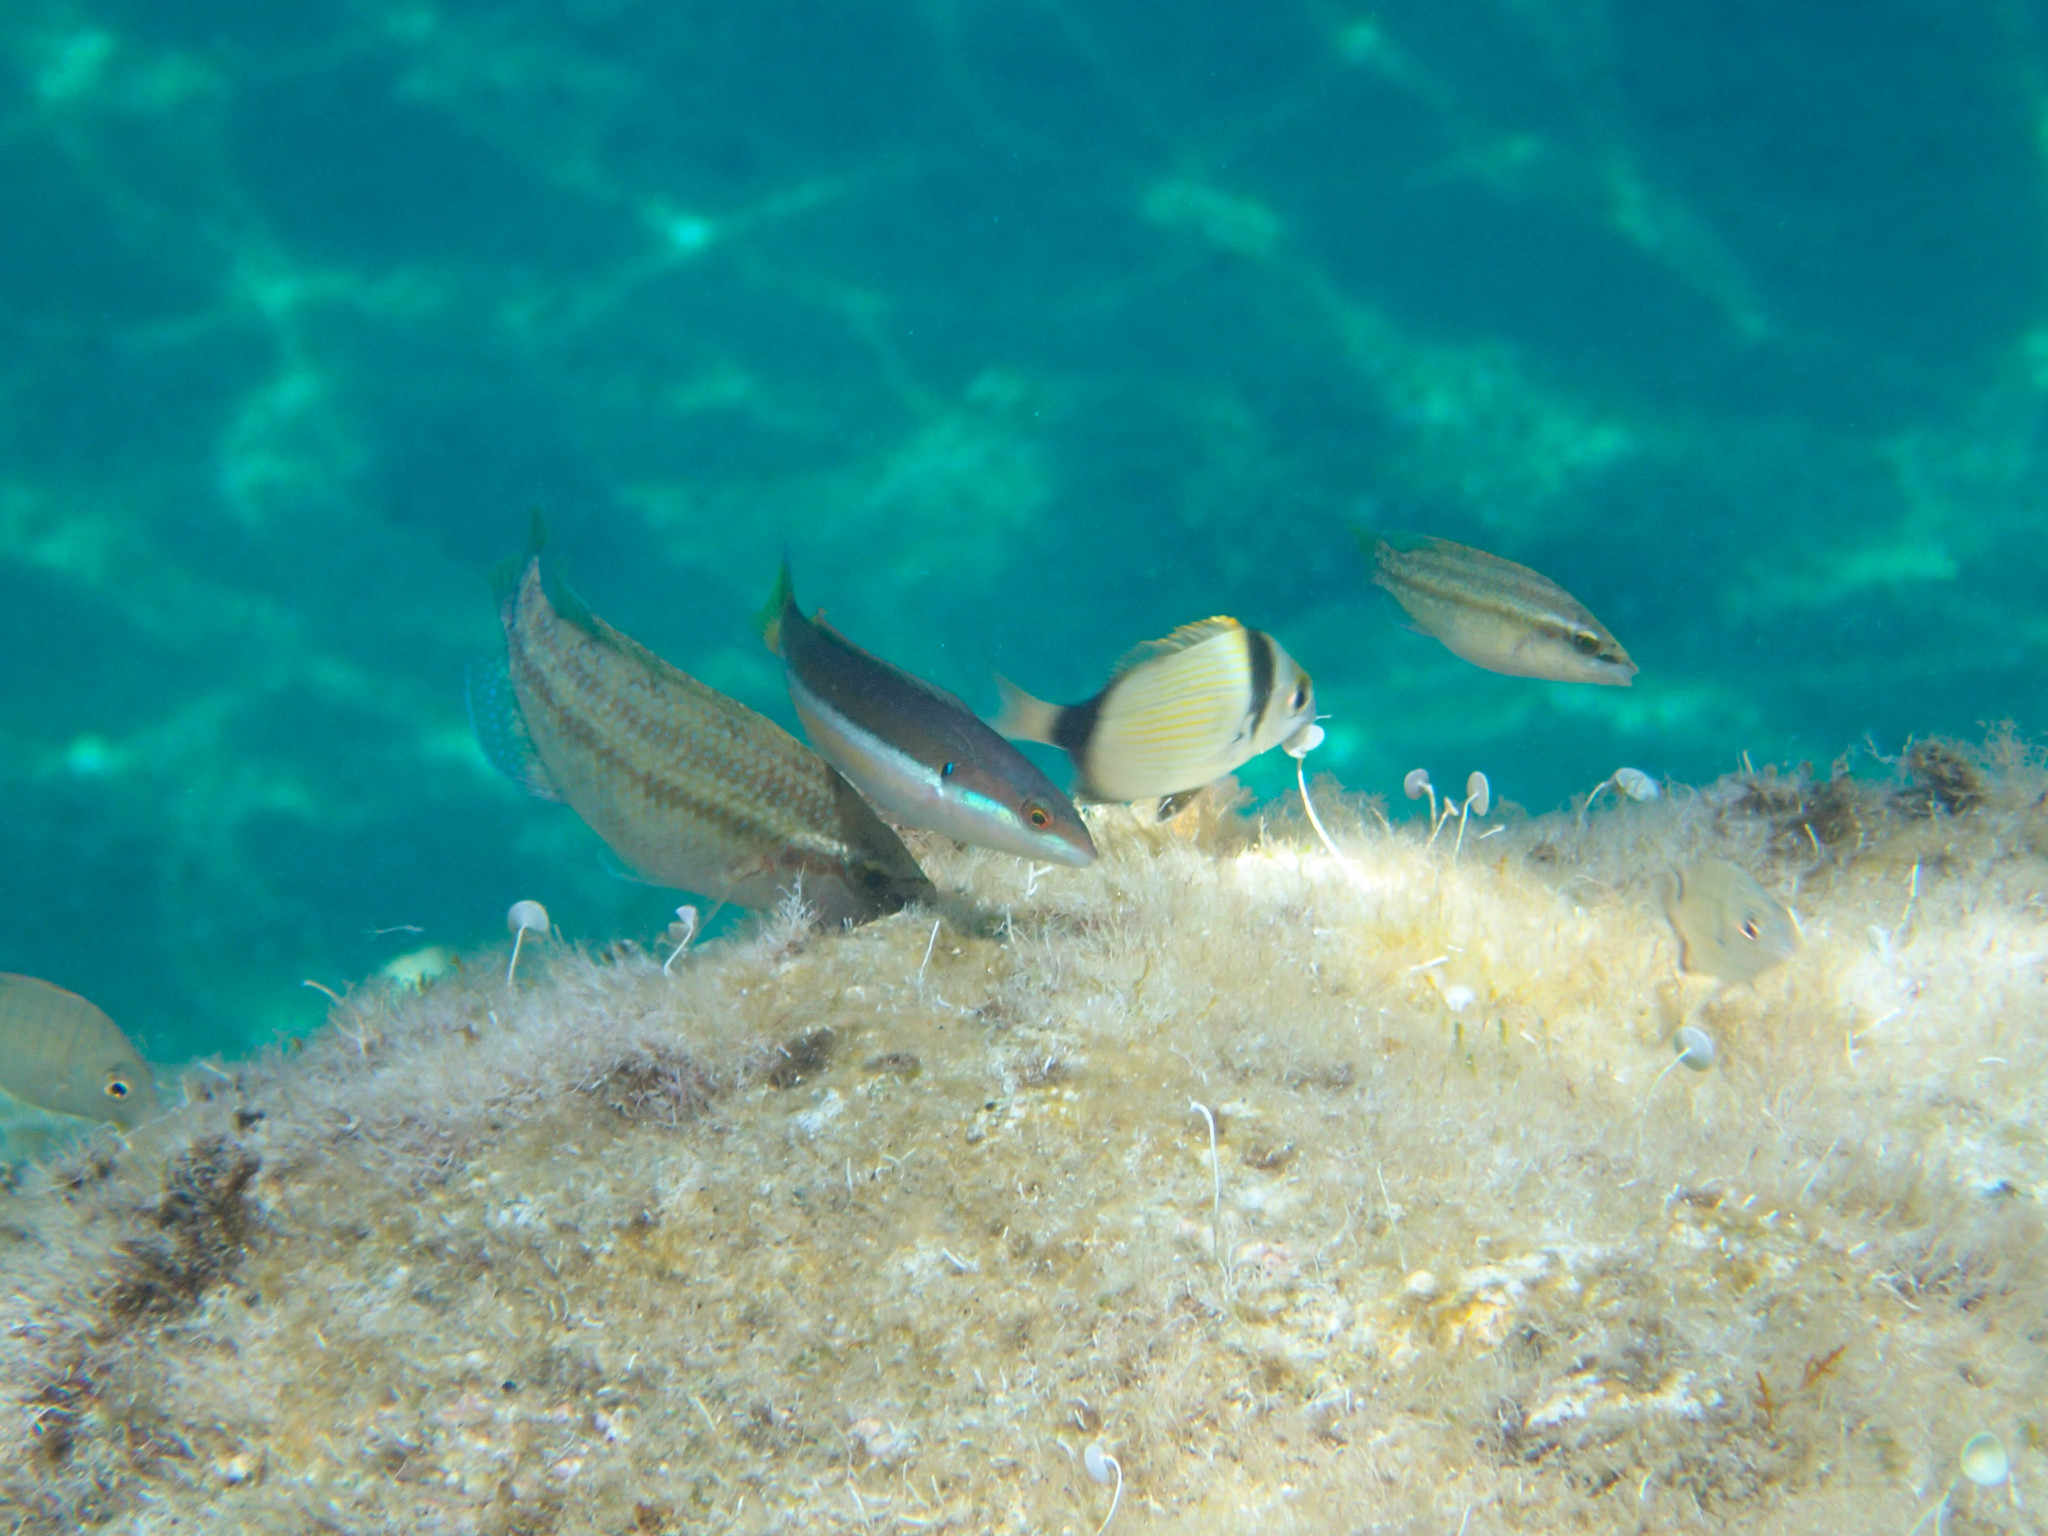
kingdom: Animalia
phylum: Chordata
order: Perciformes
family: Labridae
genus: Coris
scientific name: Coris julis
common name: Rainbow wrasse
